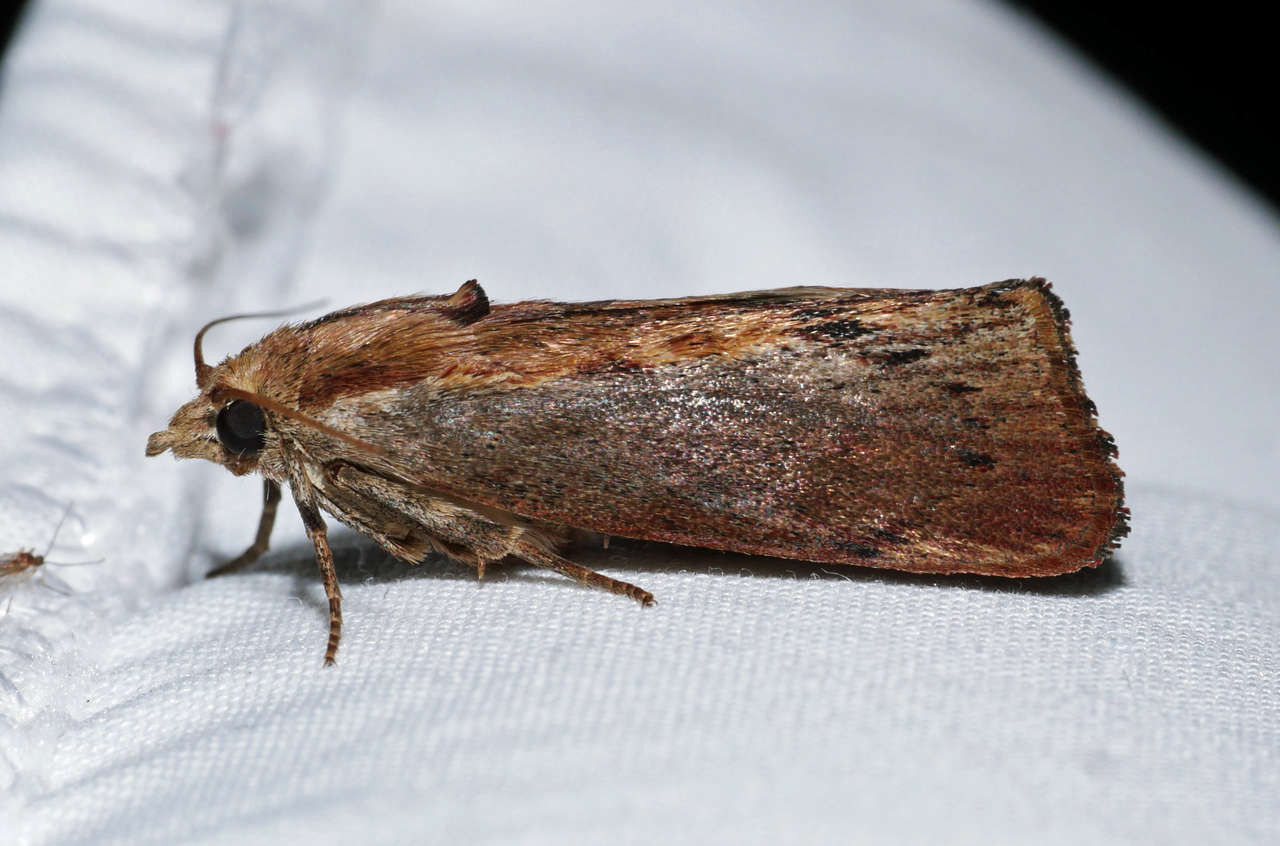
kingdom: Animalia
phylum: Arthropoda
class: Insecta
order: Lepidoptera
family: Pyralidae
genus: Galleria
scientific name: Galleria mellonella
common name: Greater wax moth
